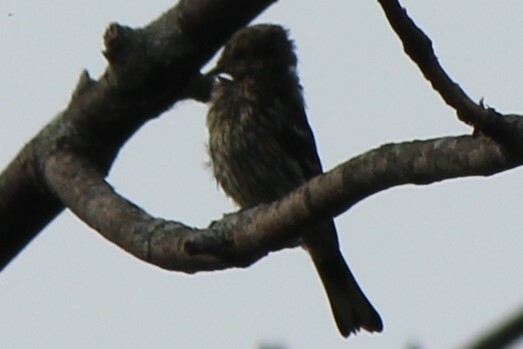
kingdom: Animalia
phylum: Chordata
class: Aves
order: Passeriformes
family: Tyrannidae
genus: Contopus
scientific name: Contopus cooperi
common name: Olive-sided flycatcher
